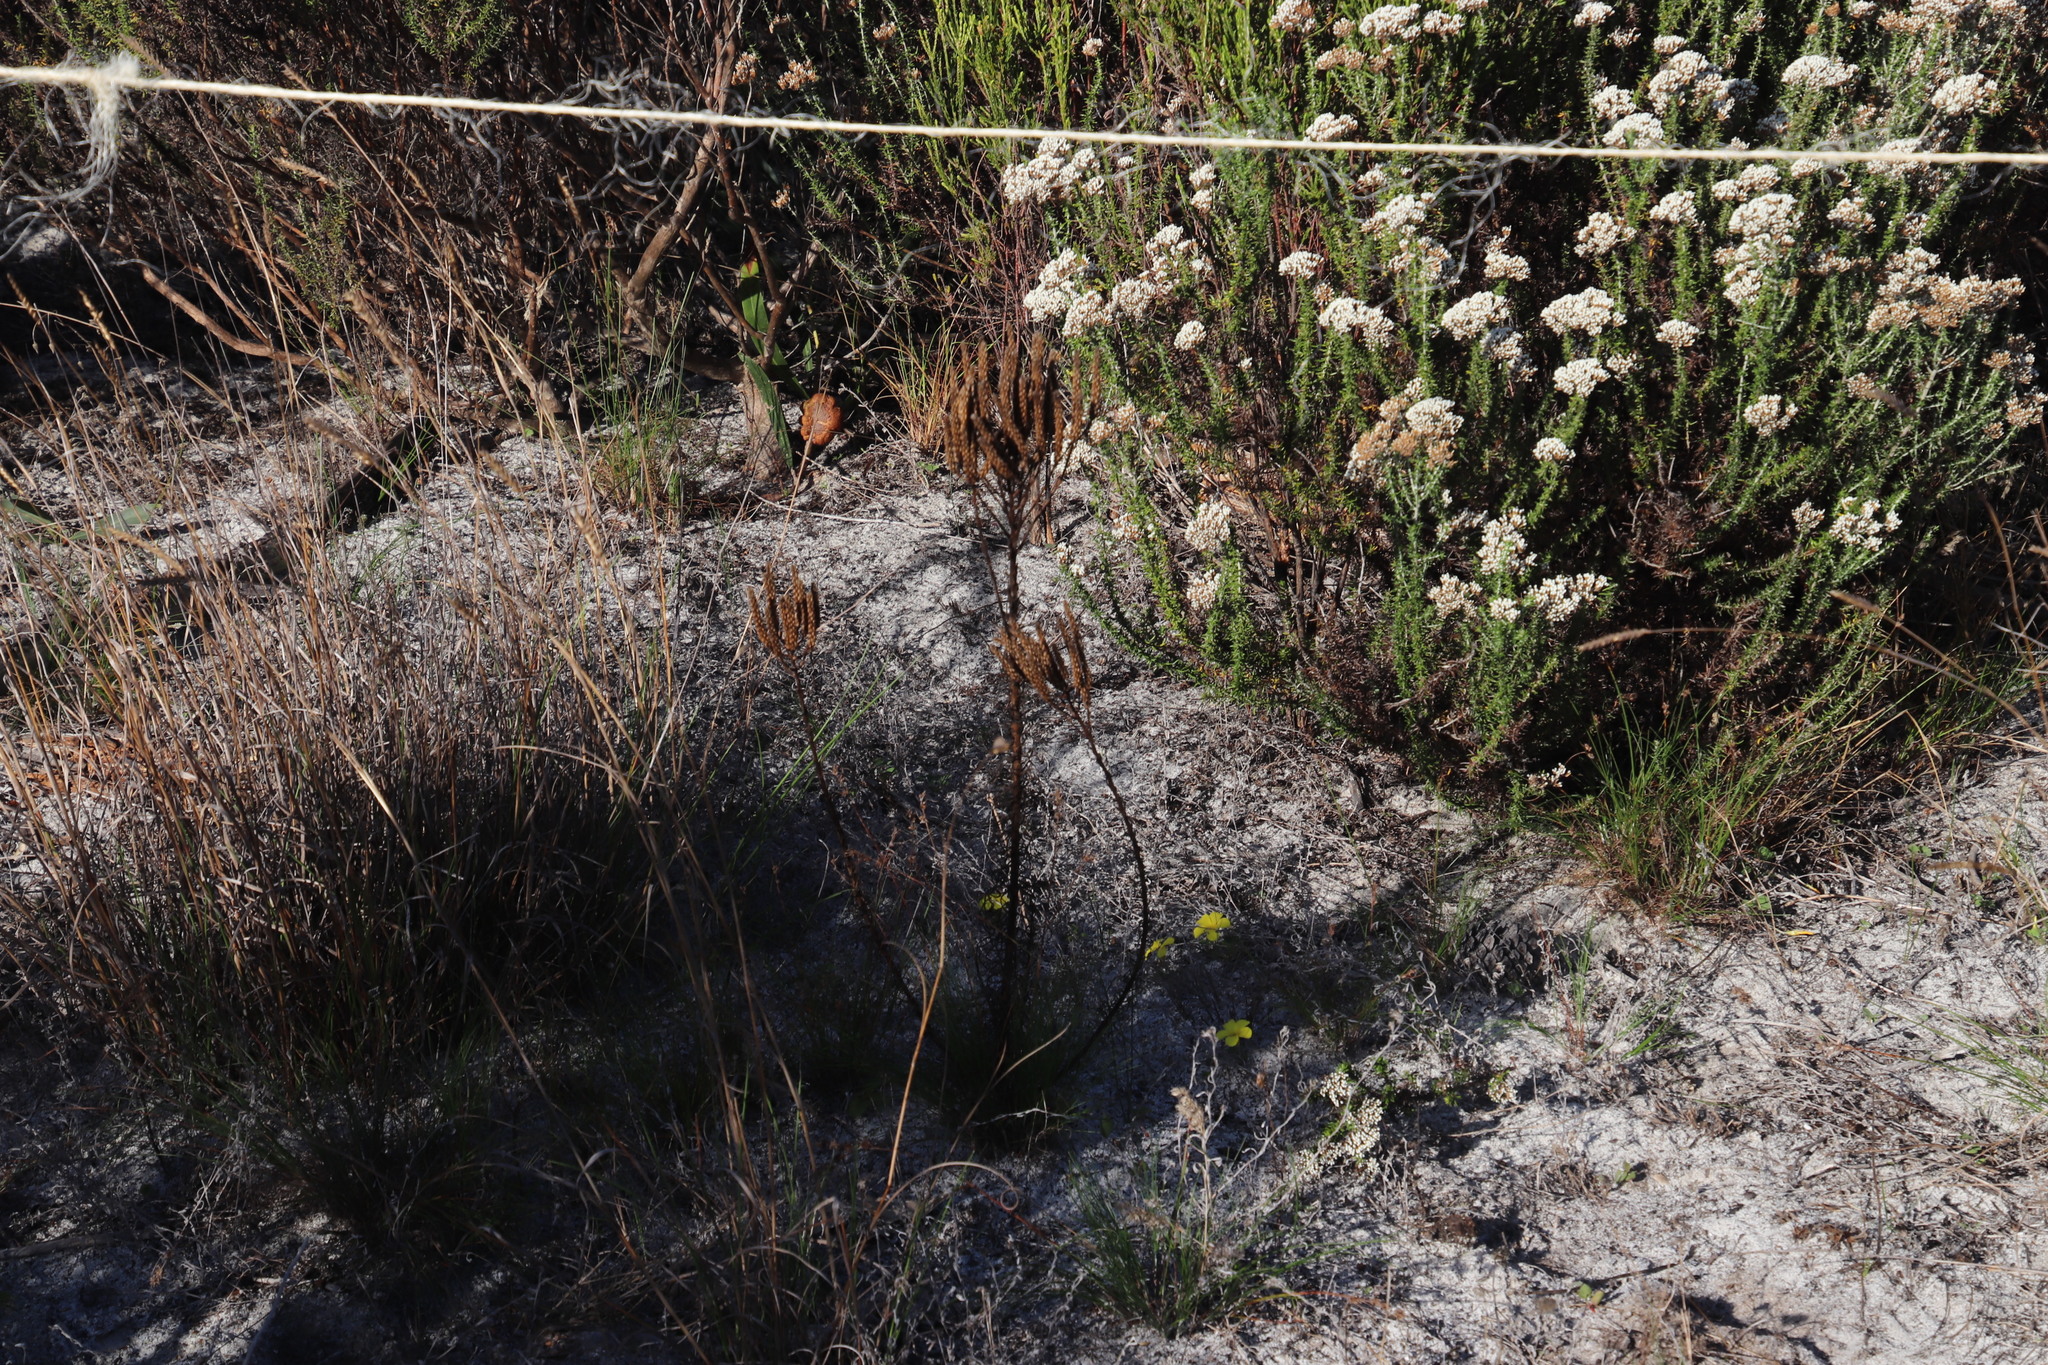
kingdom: Plantae
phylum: Tracheophyta
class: Magnoliopsida
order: Lamiales
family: Scrophulariaceae
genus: Pseudoselago
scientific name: Pseudoselago spuria
